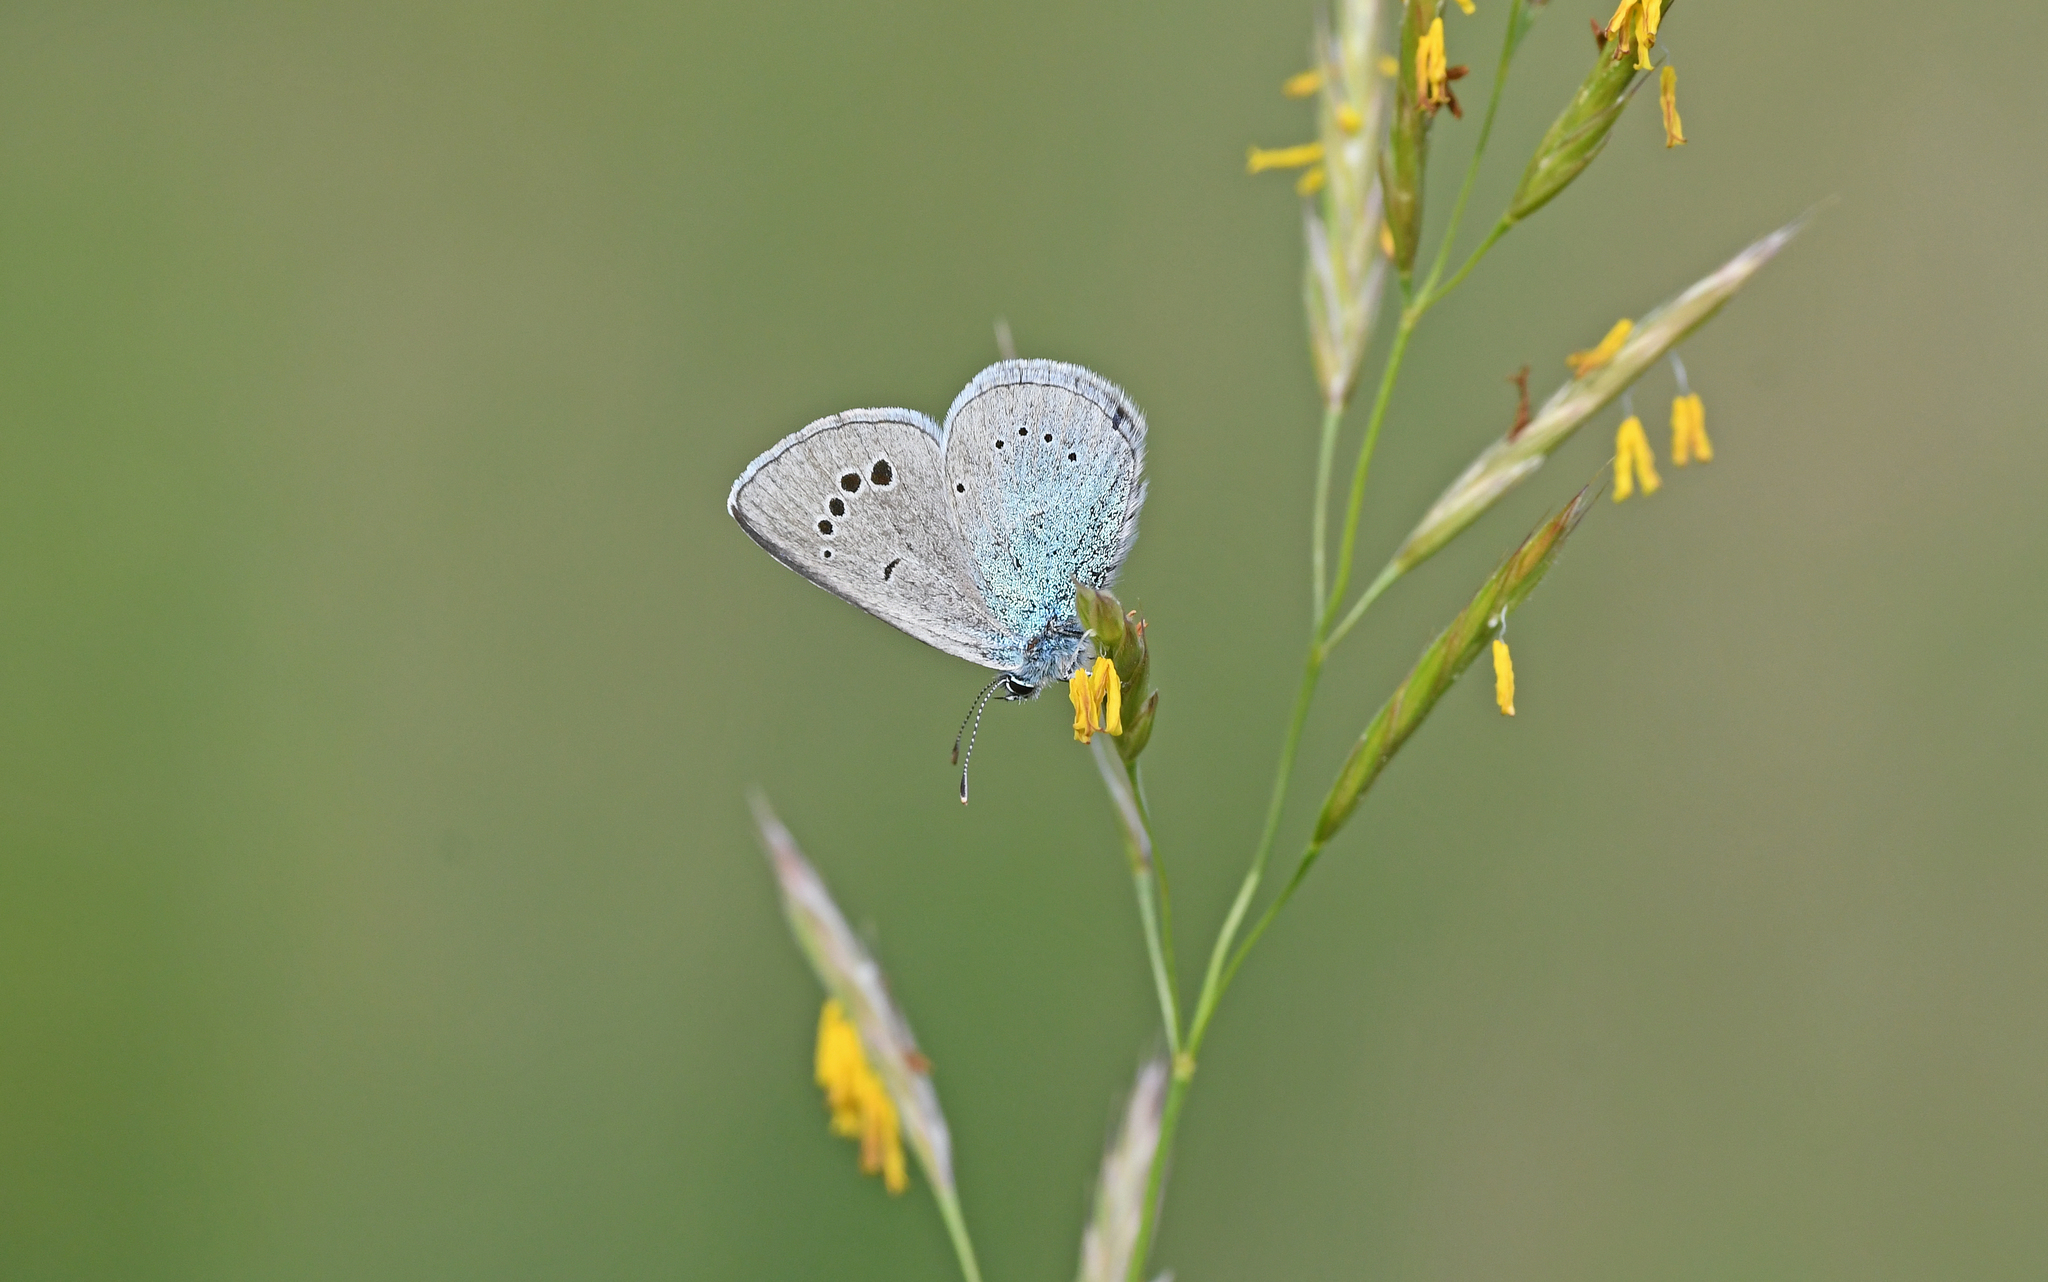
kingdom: Animalia
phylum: Arthropoda
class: Insecta
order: Lepidoptera
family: Lycaenidae
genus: Glaucopsyche
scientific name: Glaucopsyche alexis
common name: Green-underside blue
